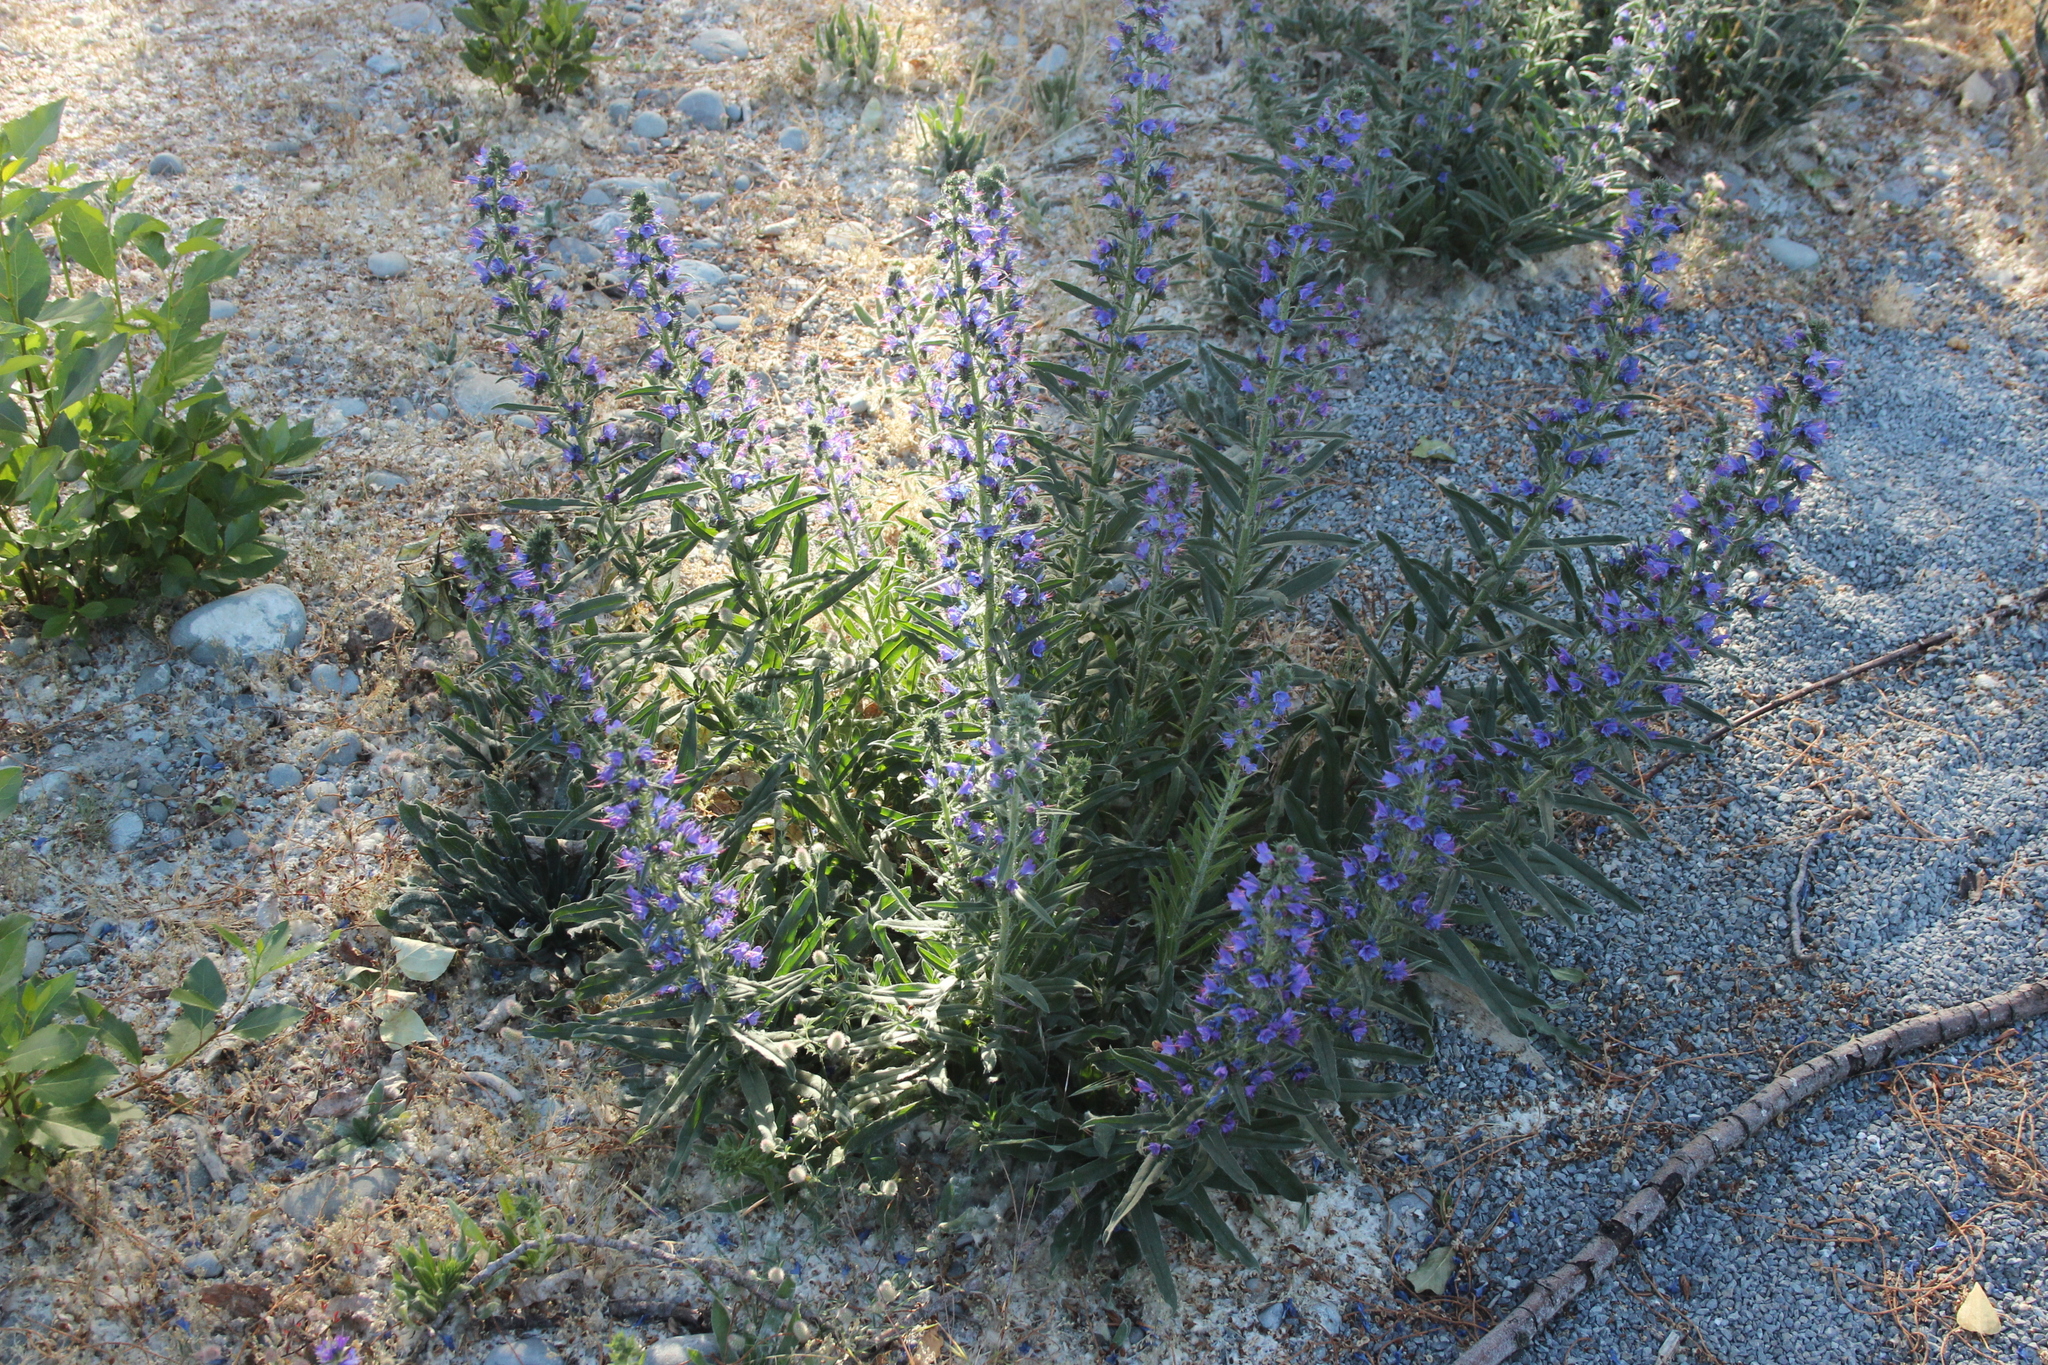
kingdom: Plantae
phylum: Tracheophyta
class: Magnoliopsida
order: Boraginales
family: Boraginaceae
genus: Echium
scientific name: Echium vulgare
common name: Common viper's bugloss
